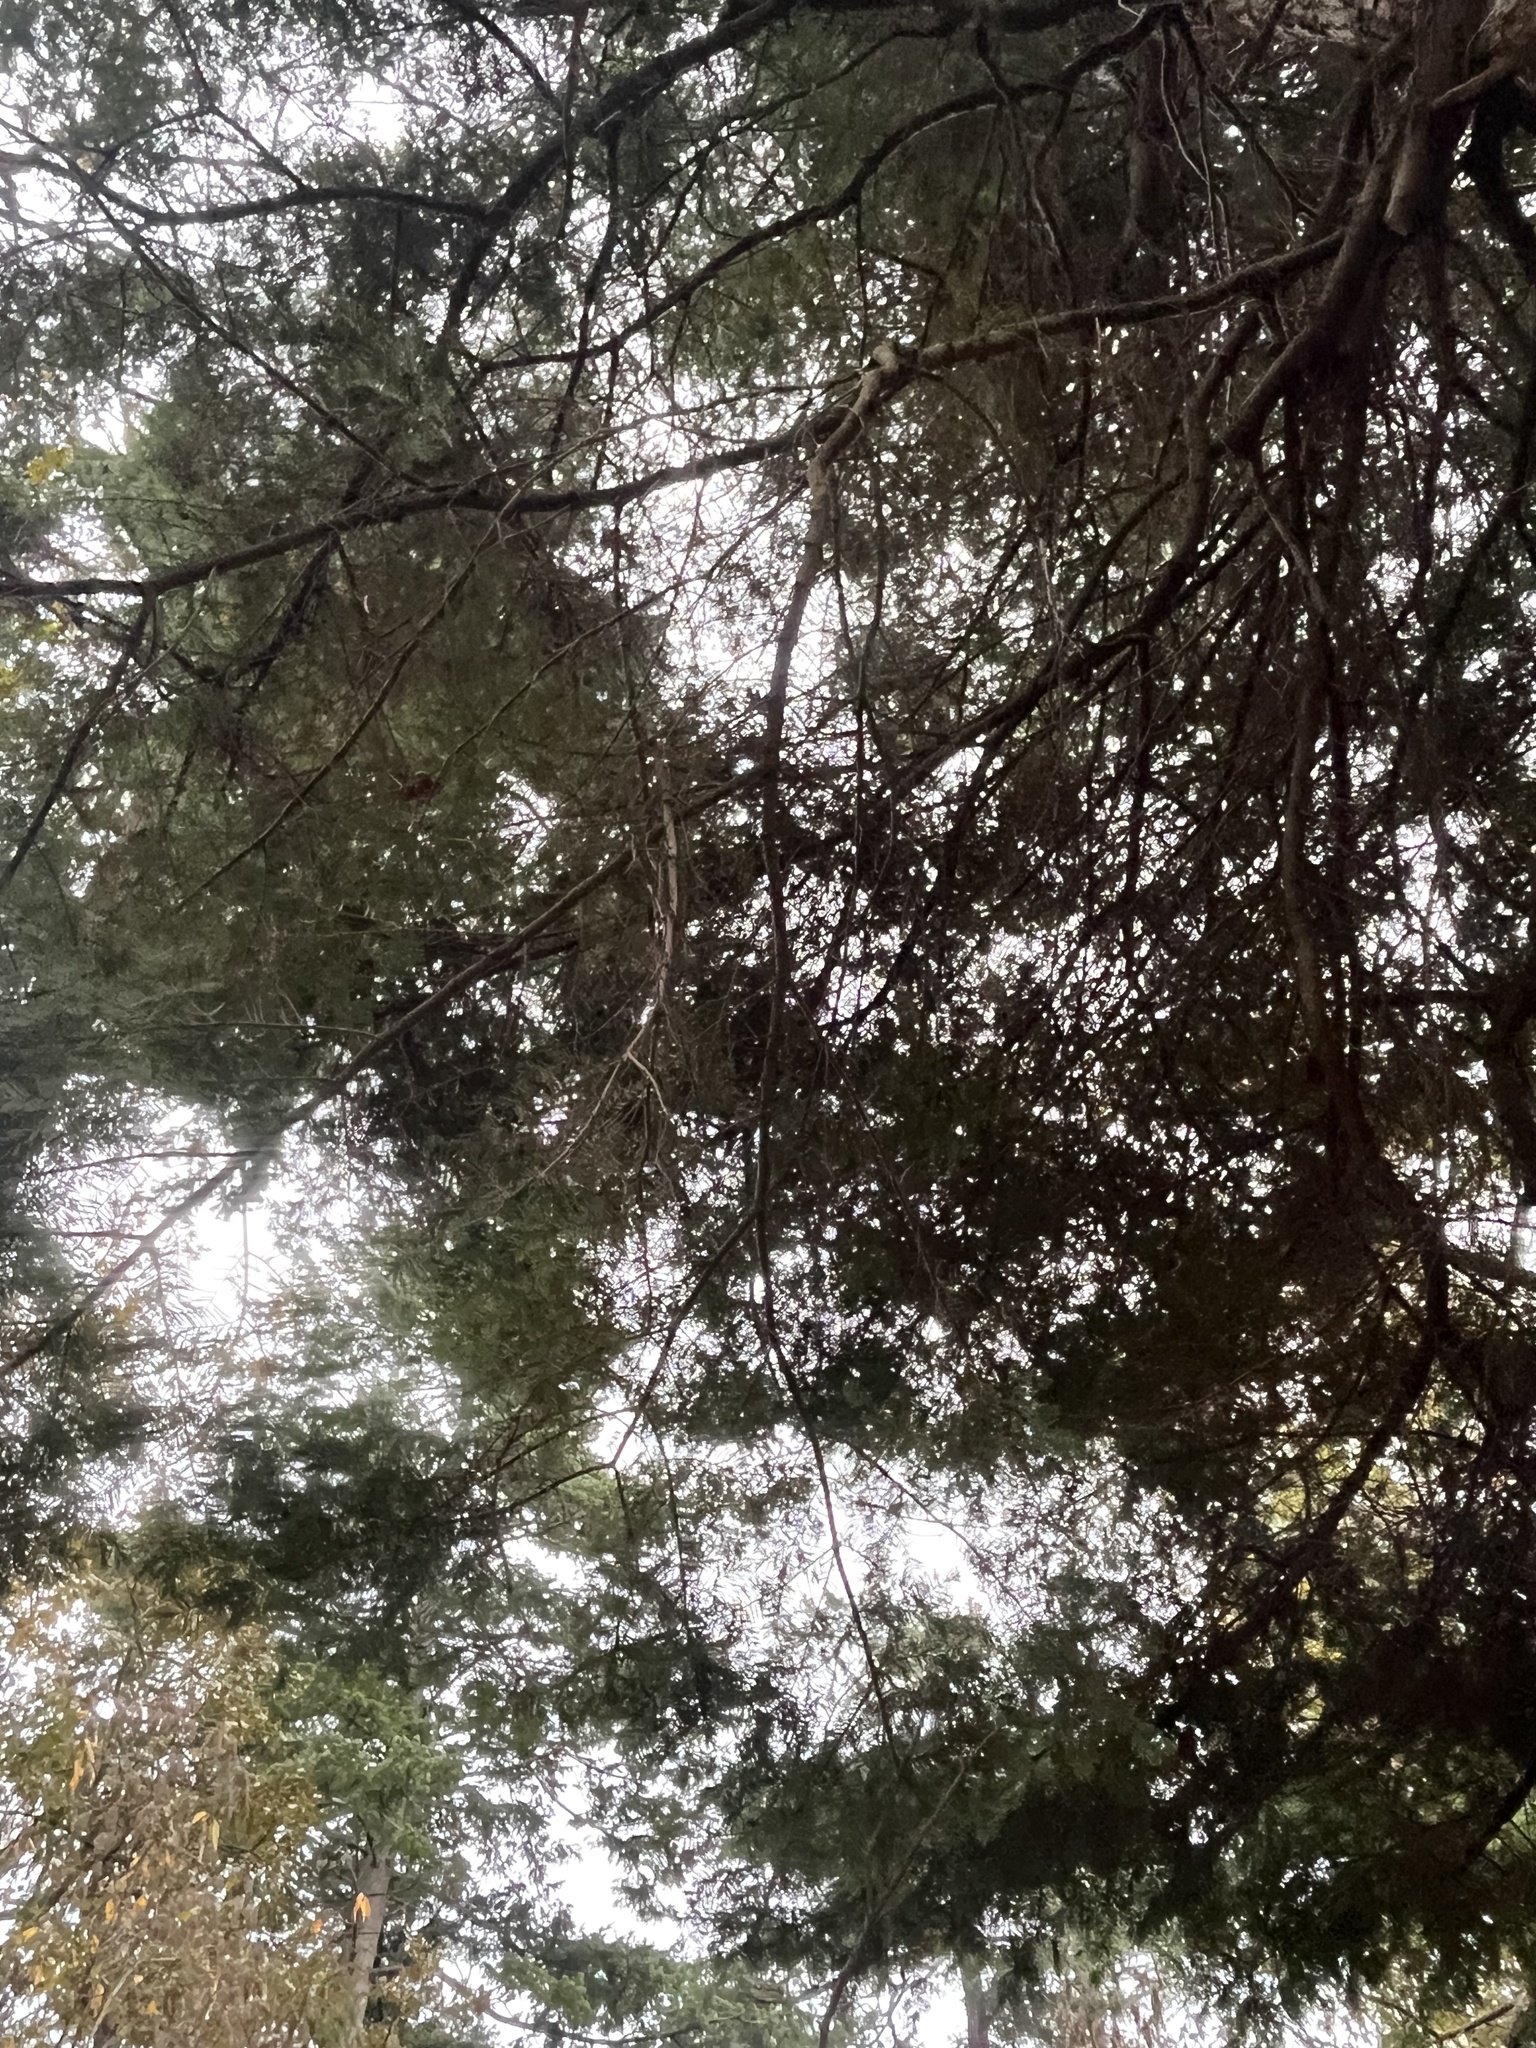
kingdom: Plantae
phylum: Tracheophyta
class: Pinopsida
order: Pinales
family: Pinaceae
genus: Pseudotsuga
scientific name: Pseudotsuga menziesii
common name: Douglas fir
